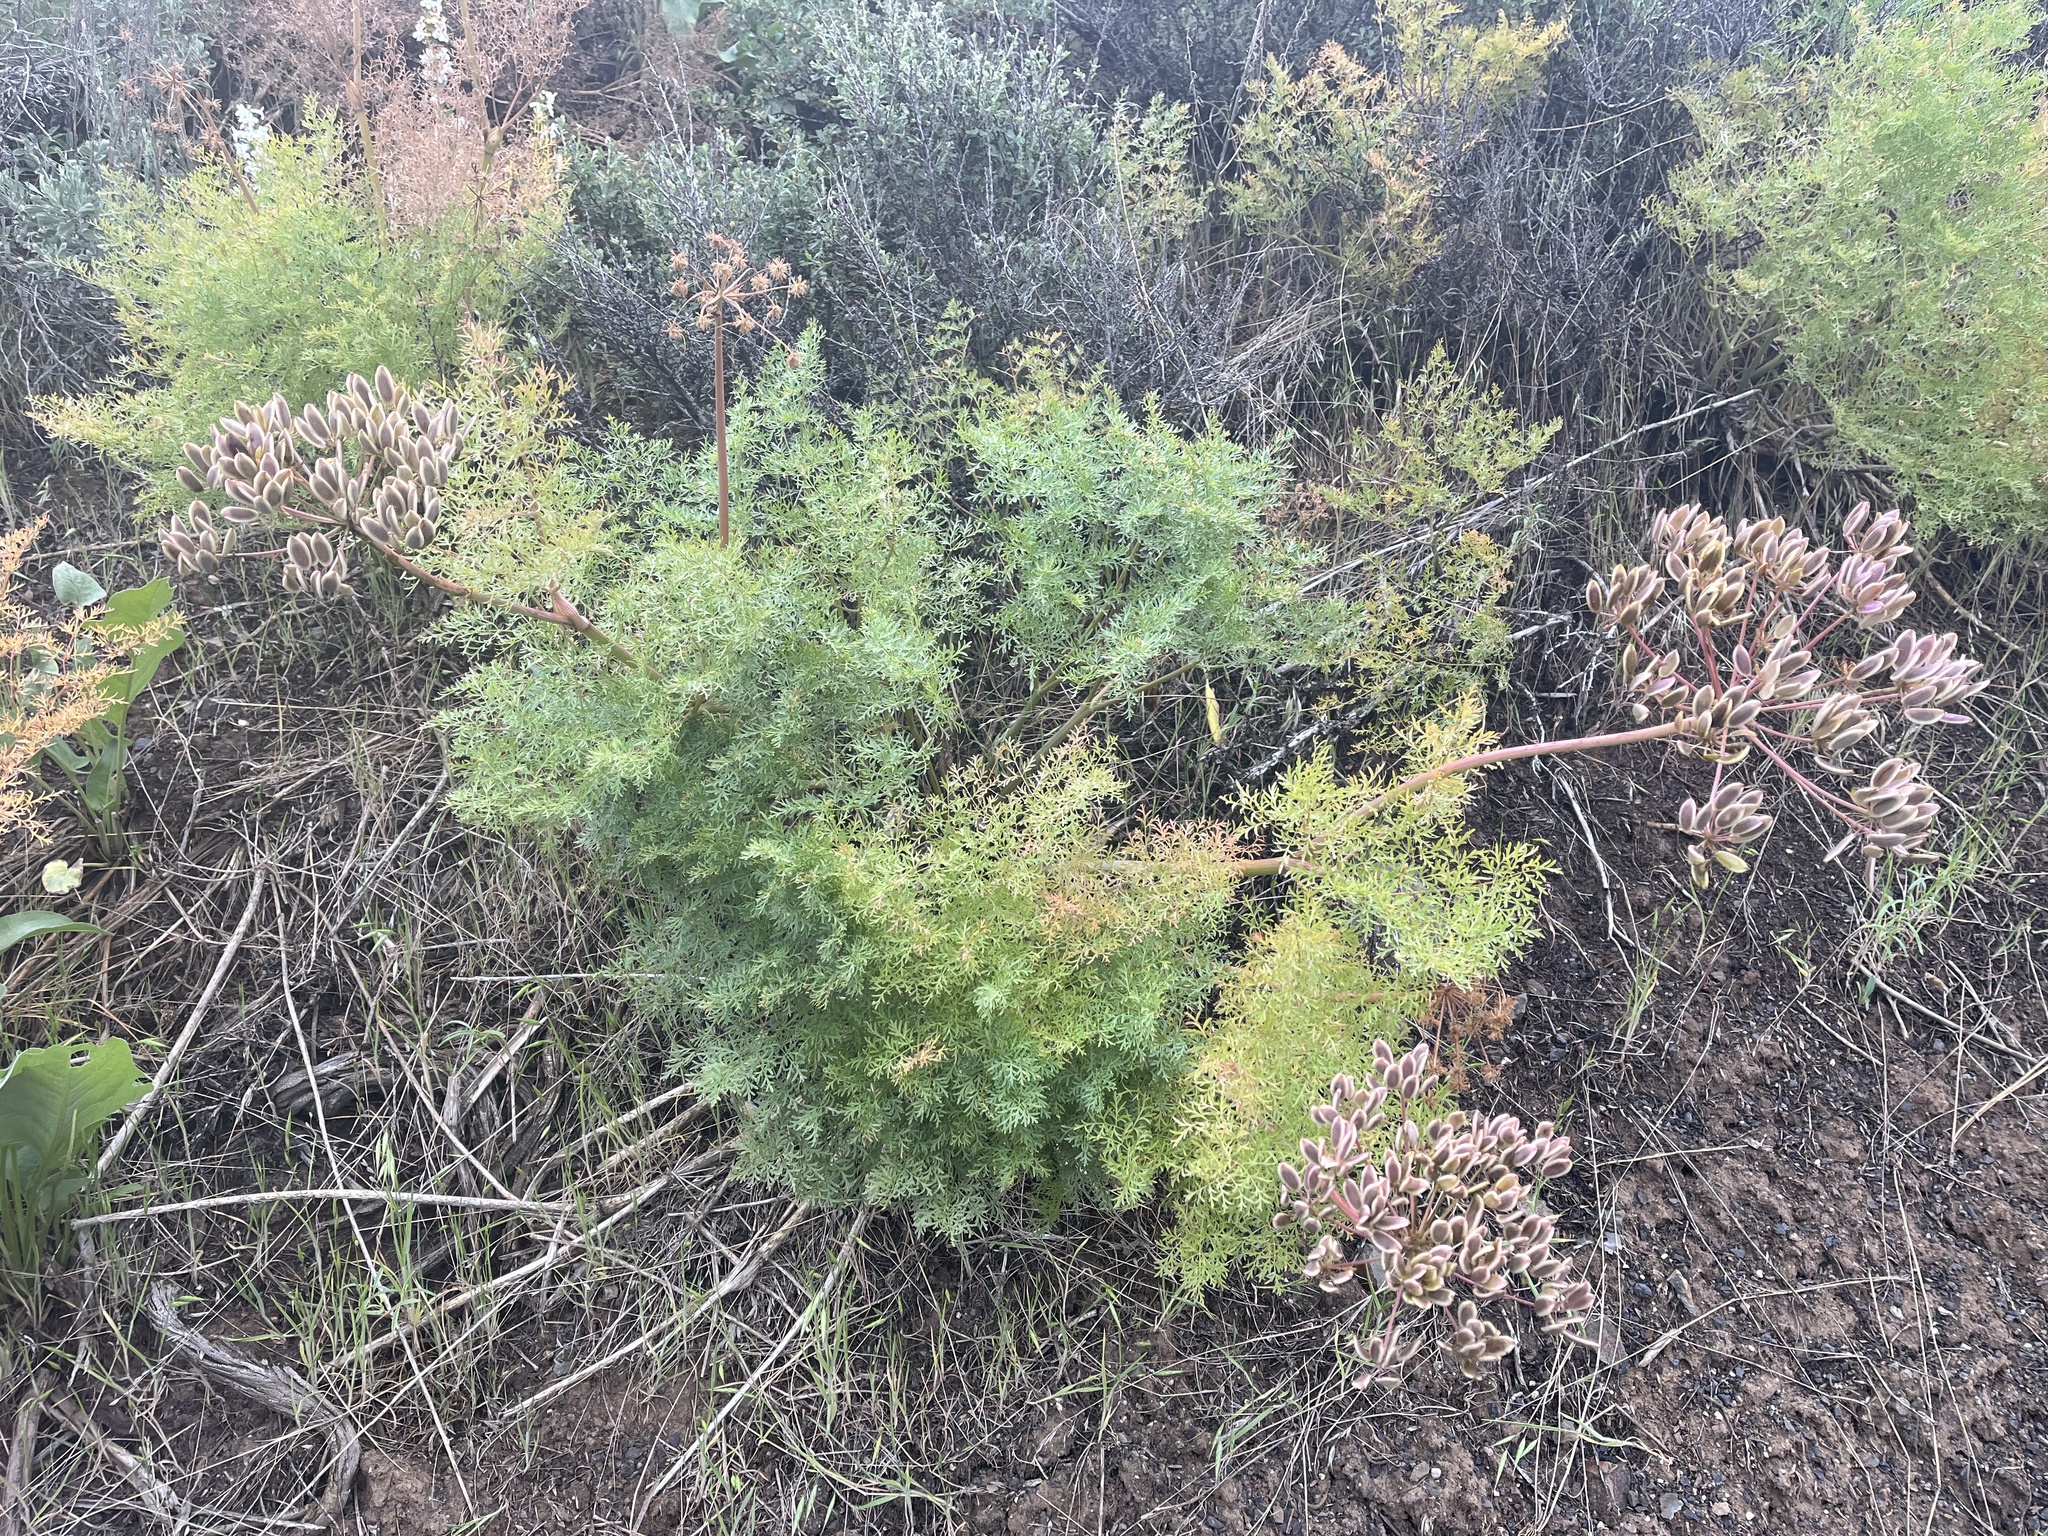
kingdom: Plantae
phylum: Tracheophyta
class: Magnoliopsida
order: Apiales
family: Apiaceae
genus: Lomatium
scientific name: Lomatium multifidum
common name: Carrot-leaved biscuitroot
